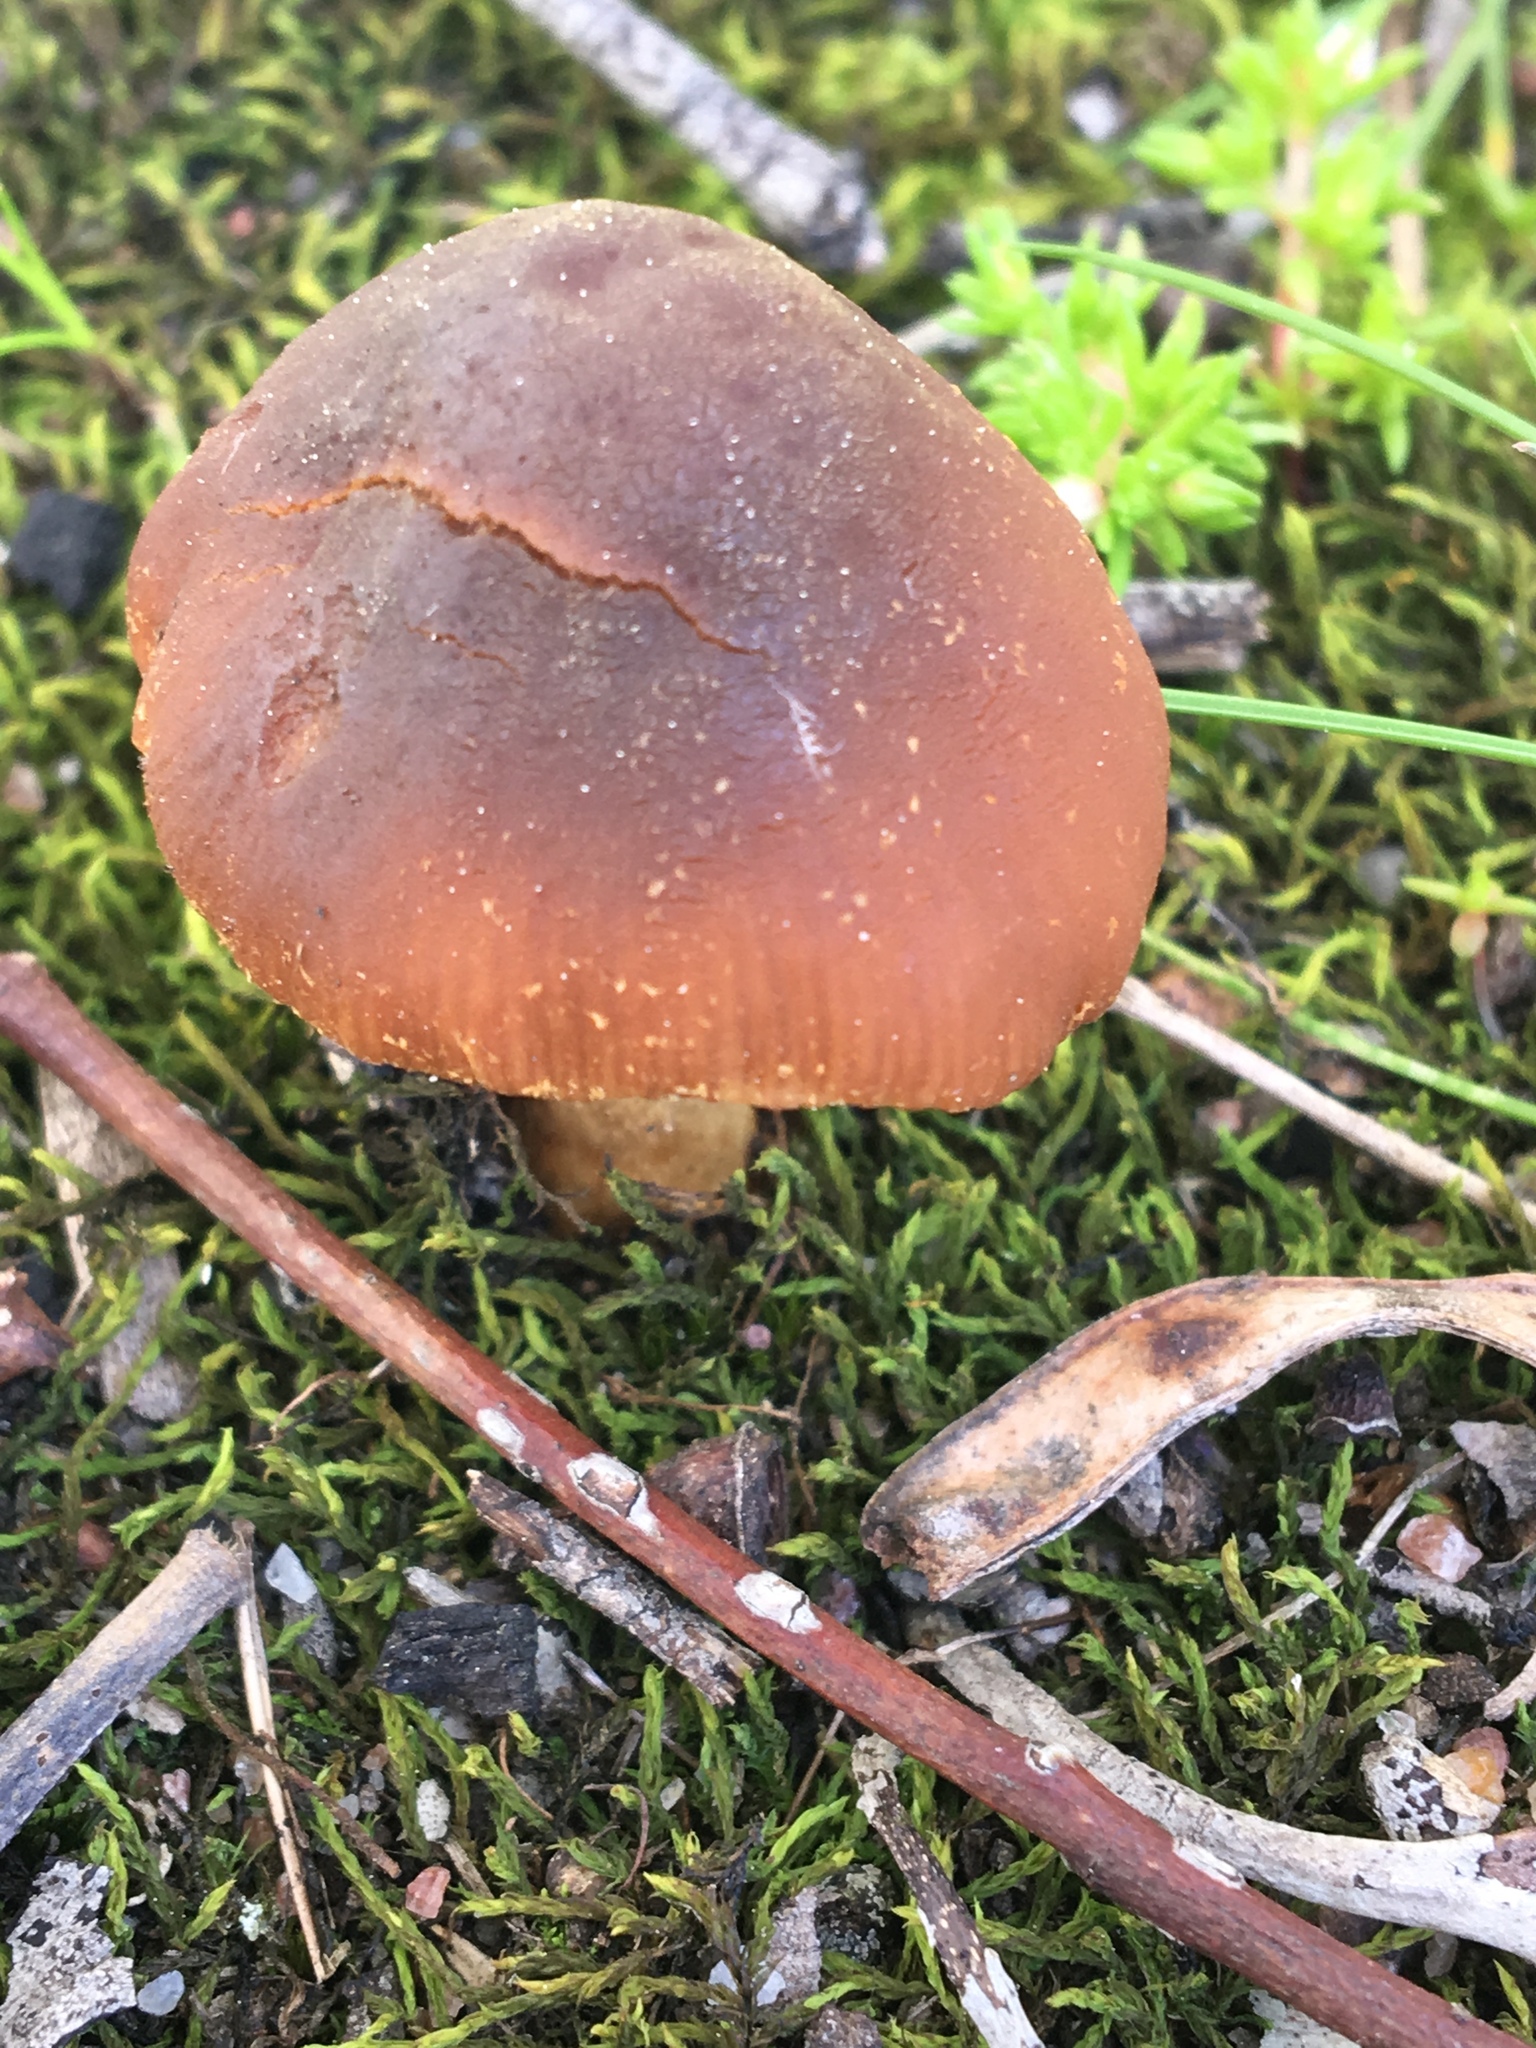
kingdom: Fungi
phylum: Basidiomycota
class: Agaricomycetes
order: Agaricales
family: Bolbitiaceae
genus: Descolea
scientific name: Descolea recedens
